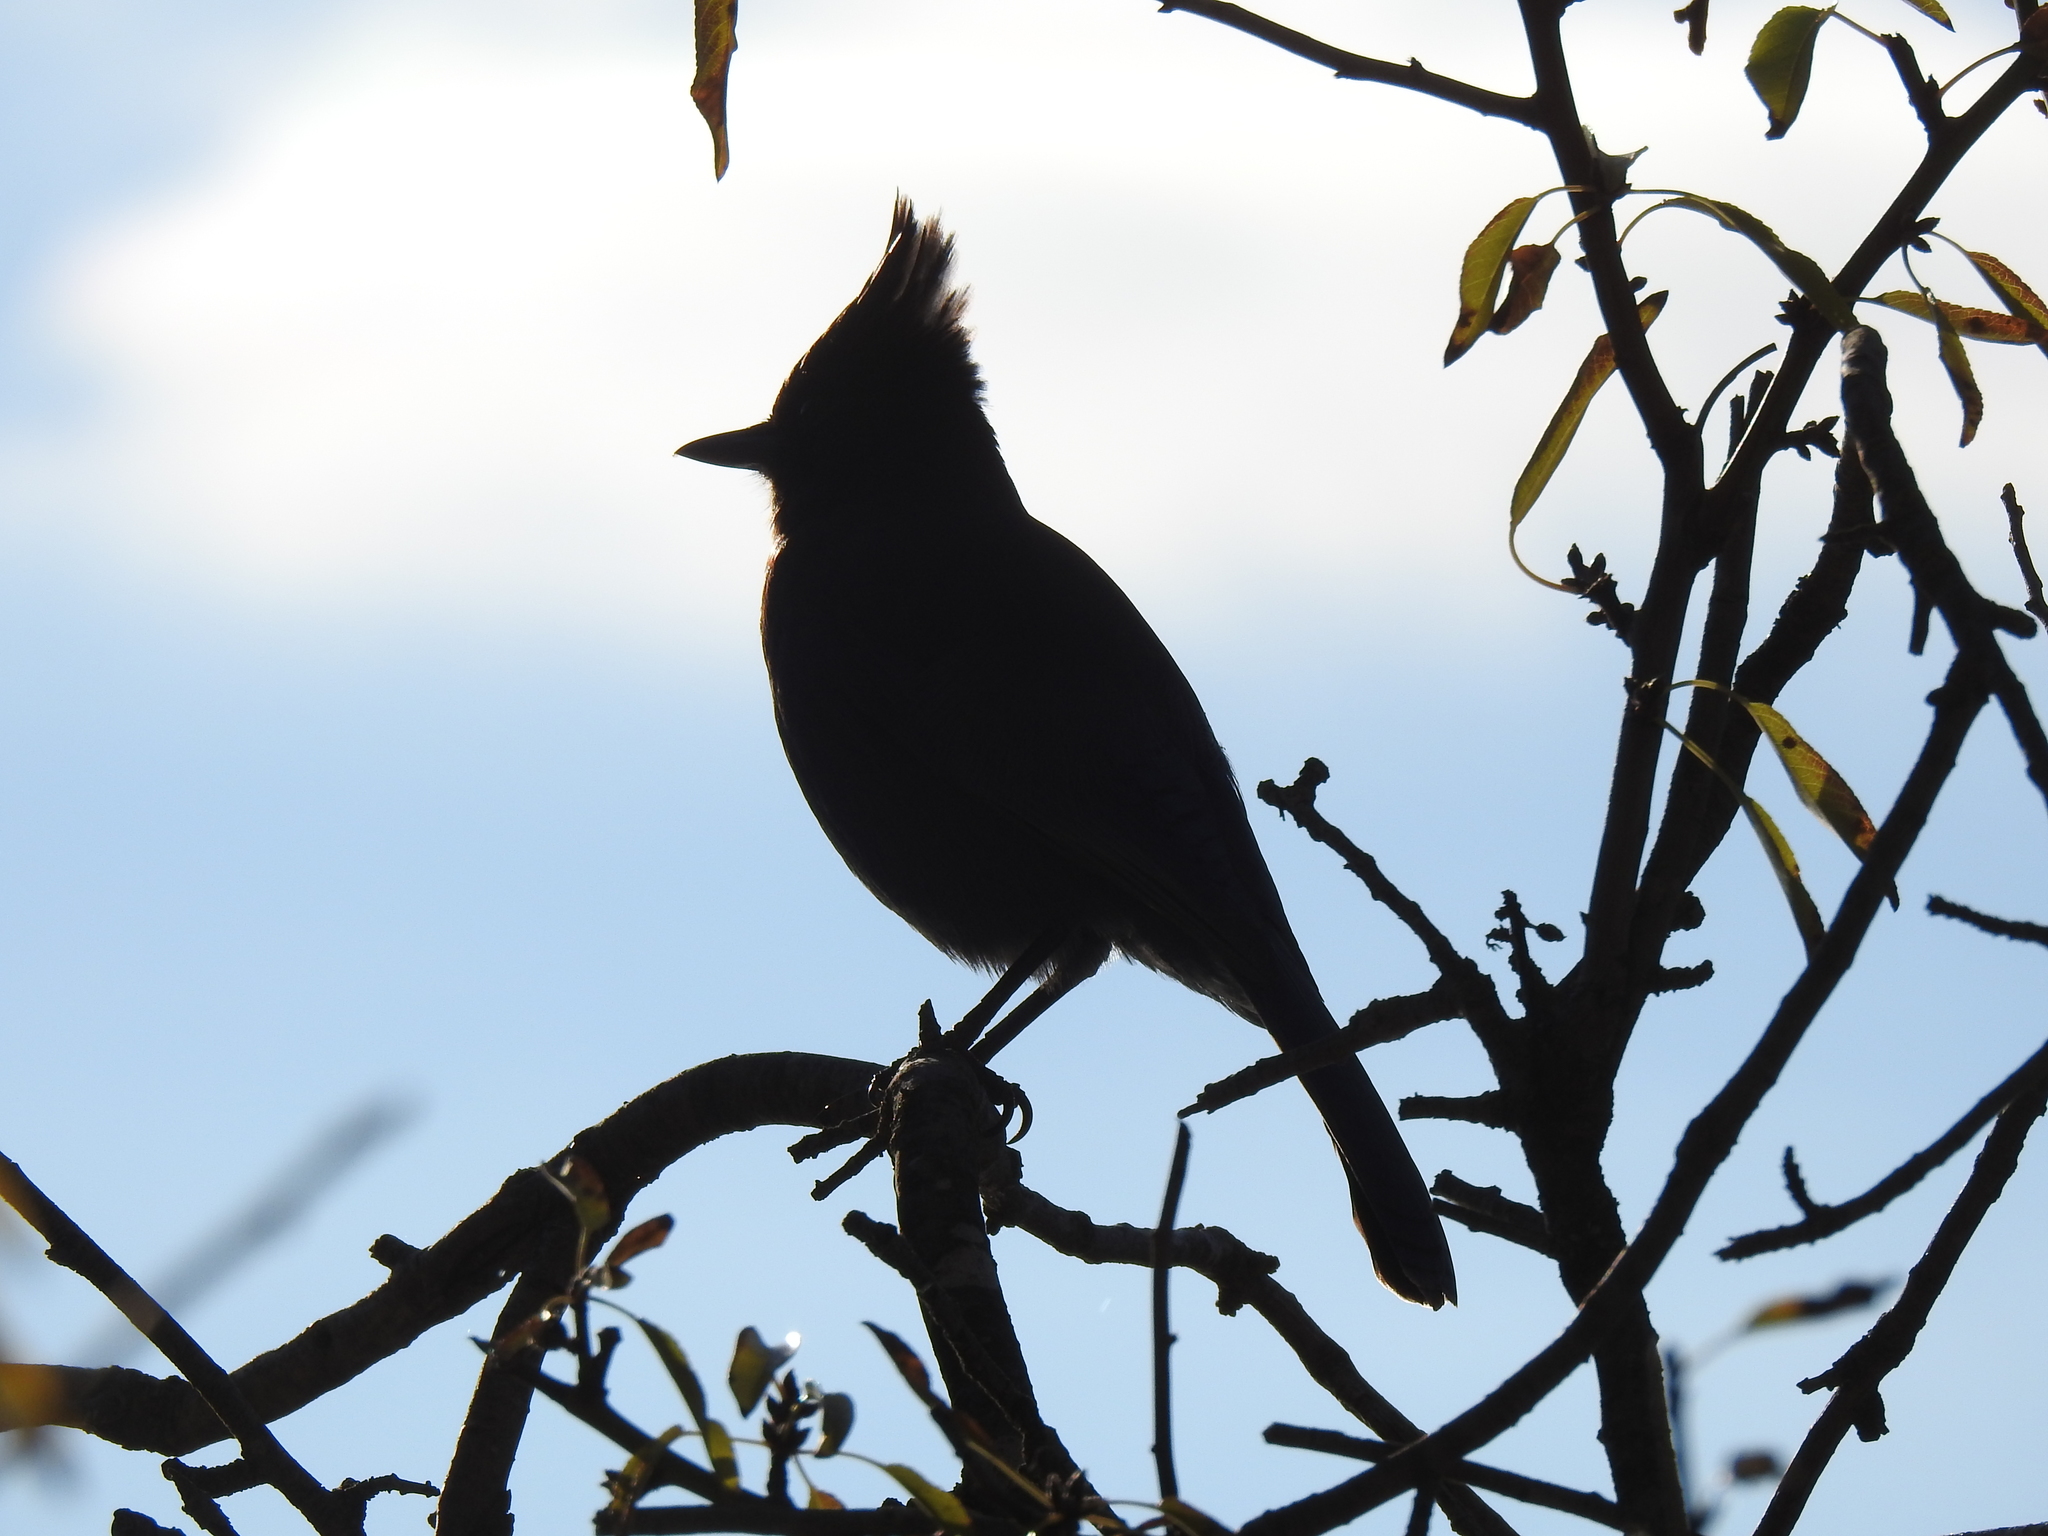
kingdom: Animalia
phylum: Chordata
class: Aves
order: Passeriformes
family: Corvidae
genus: Cyanocitta
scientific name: Cyanocitta stelleri
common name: Steller's jay
